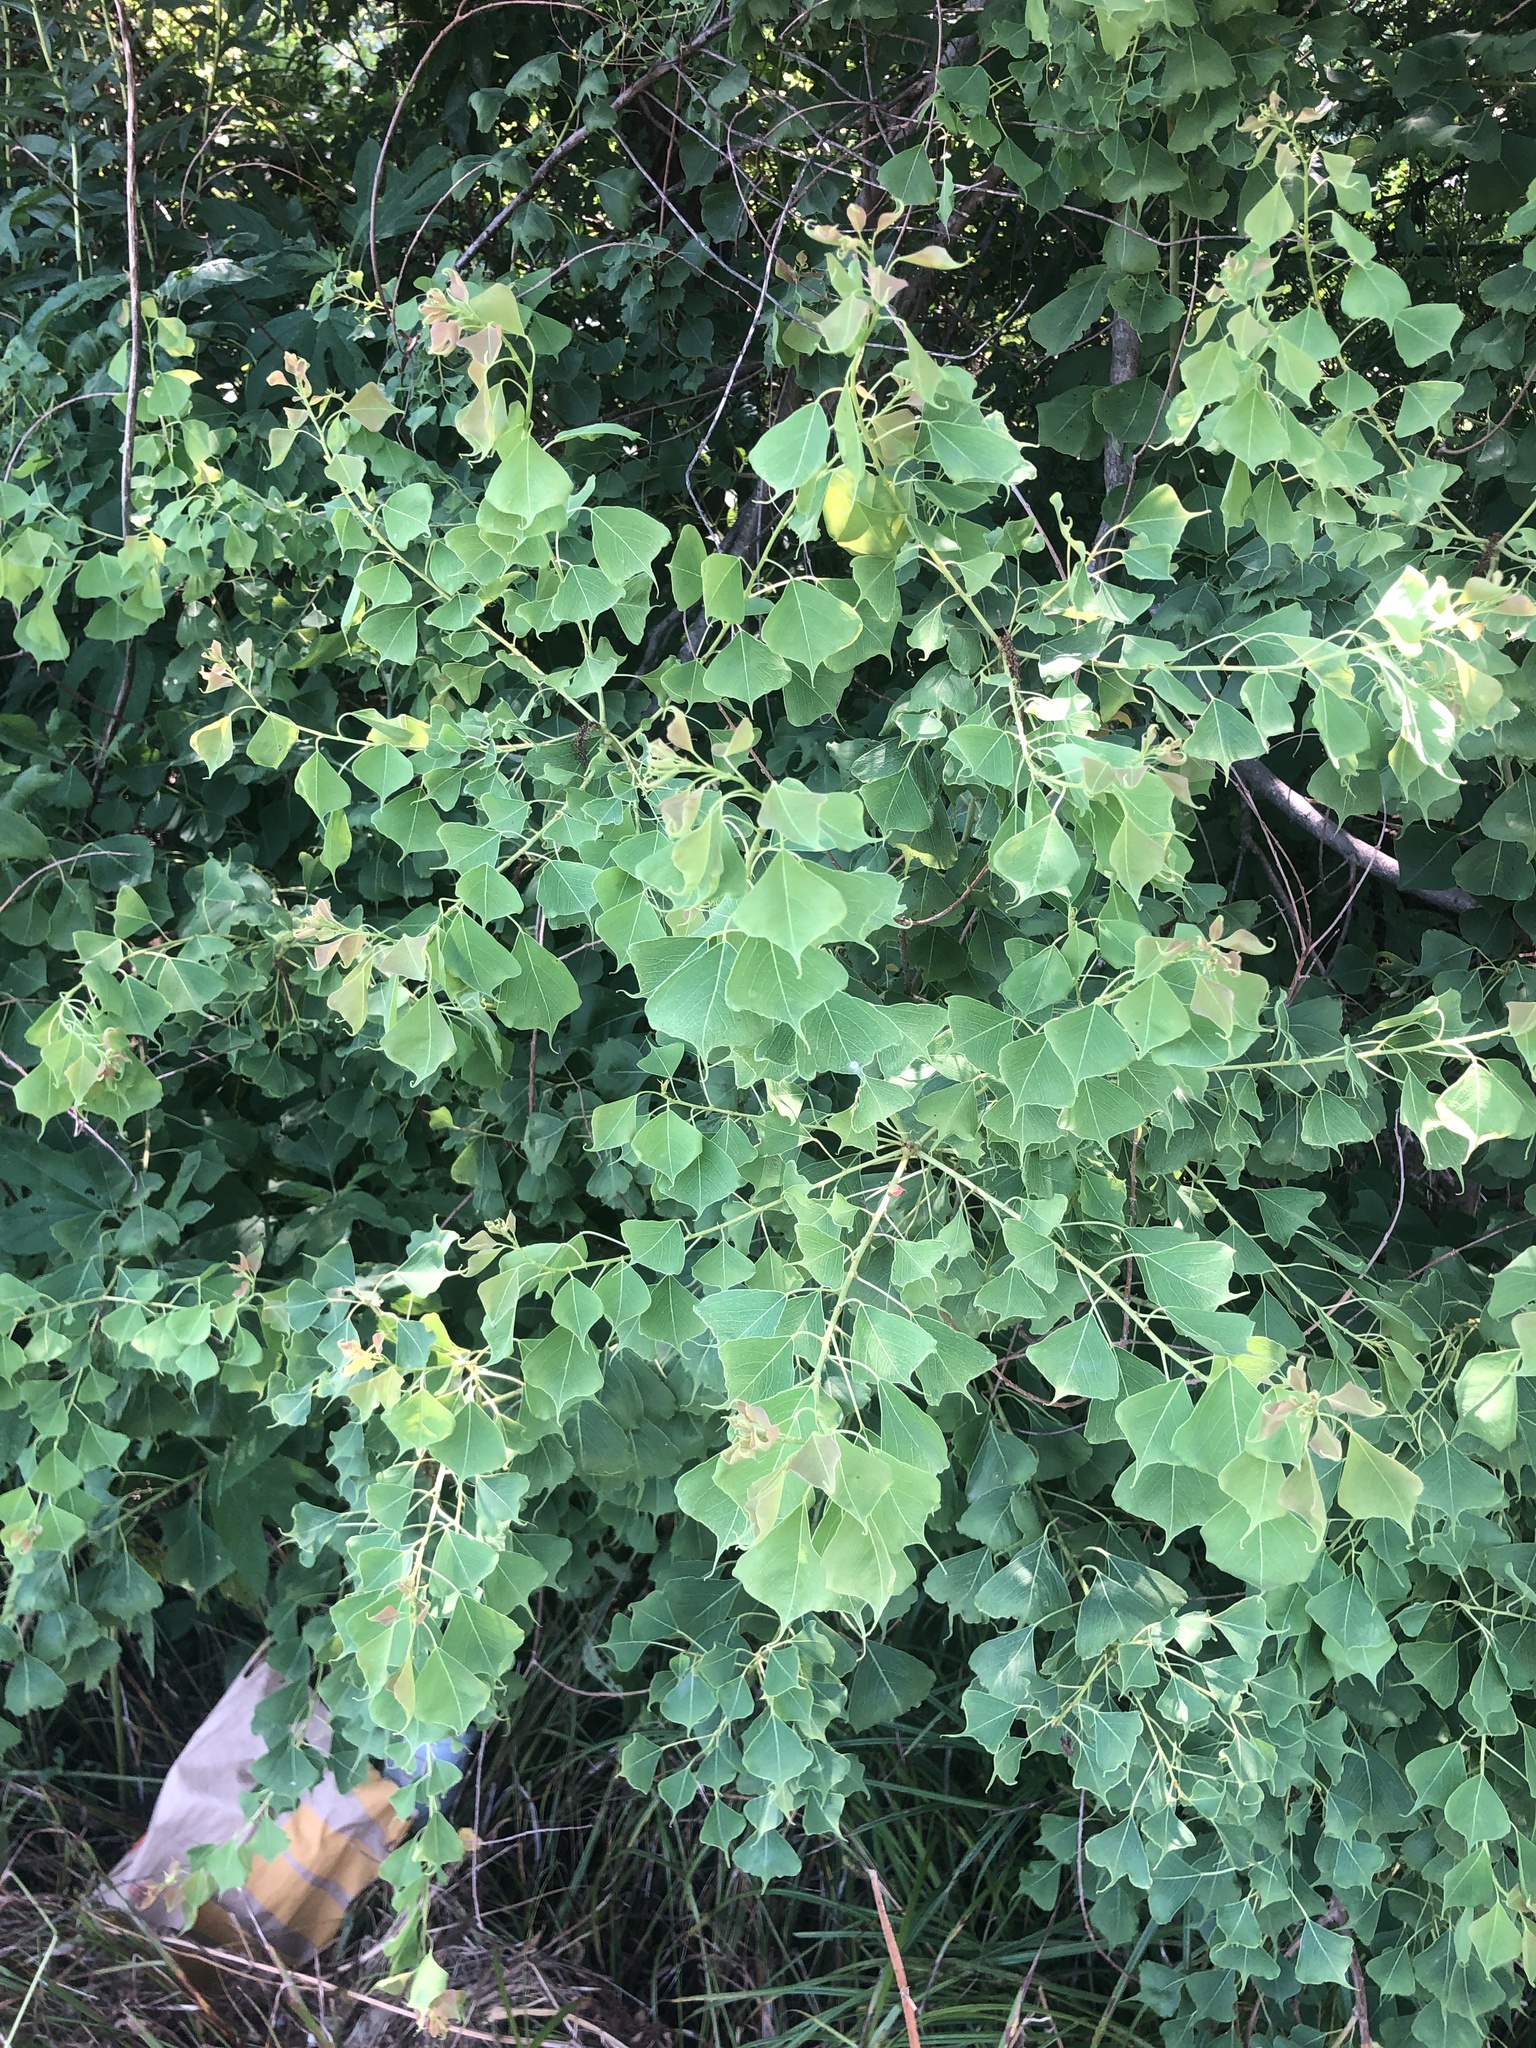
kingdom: Plantae
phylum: Tracheophyta
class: Magnoliopsida
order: Malpighiales
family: Euphorbiaceae
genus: Triadica
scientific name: Triadica sebifera
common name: Chinese tallow
